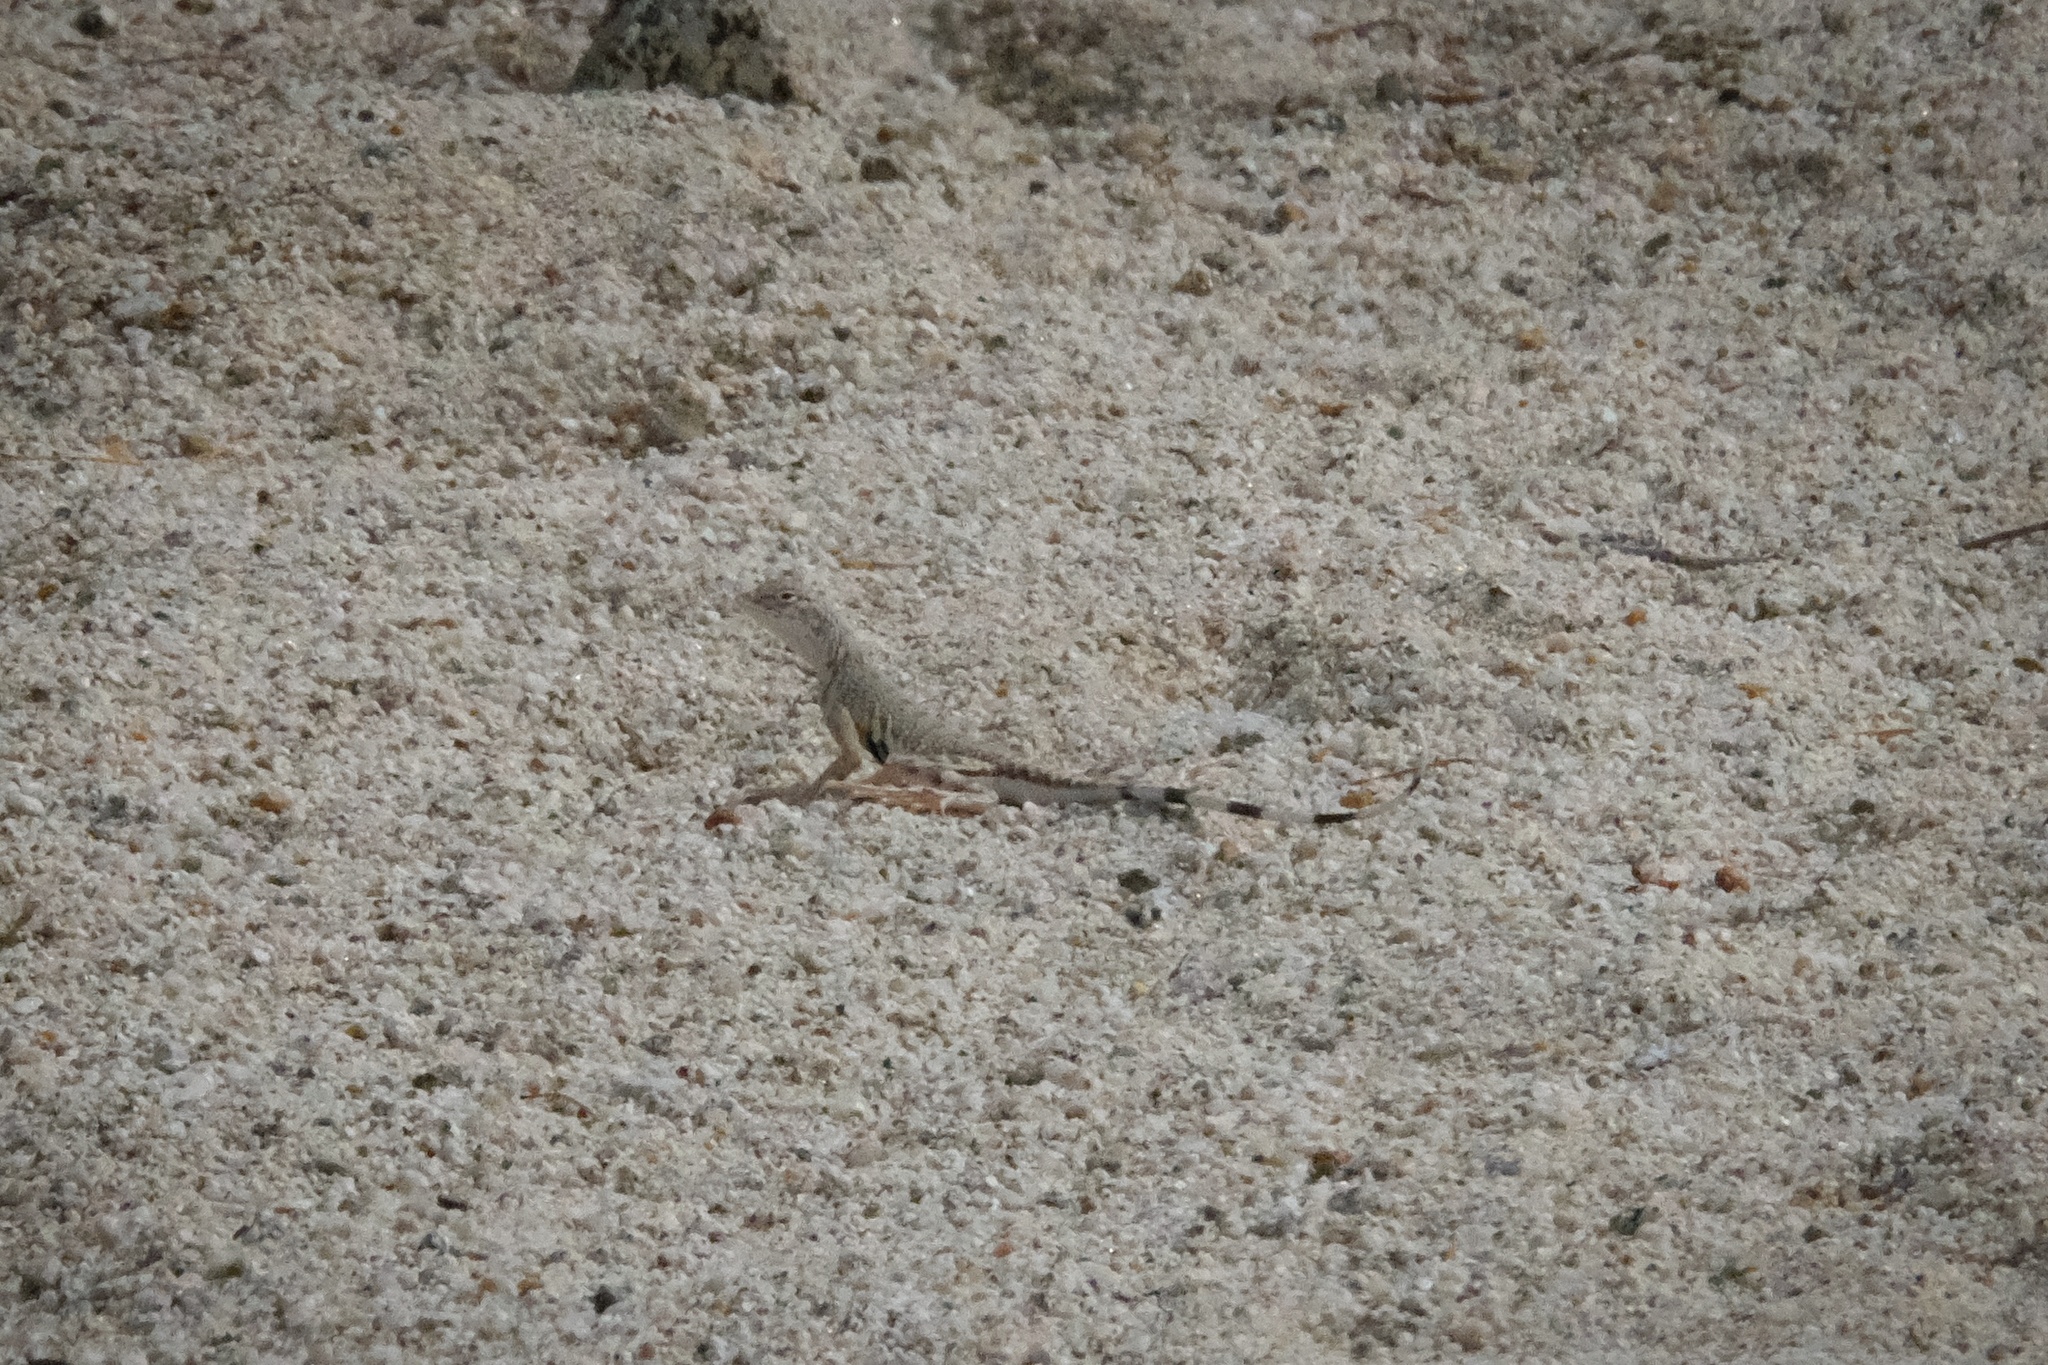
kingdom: Animalia
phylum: Chordata
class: Squamata
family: Phrynosomatidae
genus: Callisaurus
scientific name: Callisaurus draconoides
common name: Zebra-tailed lizard
